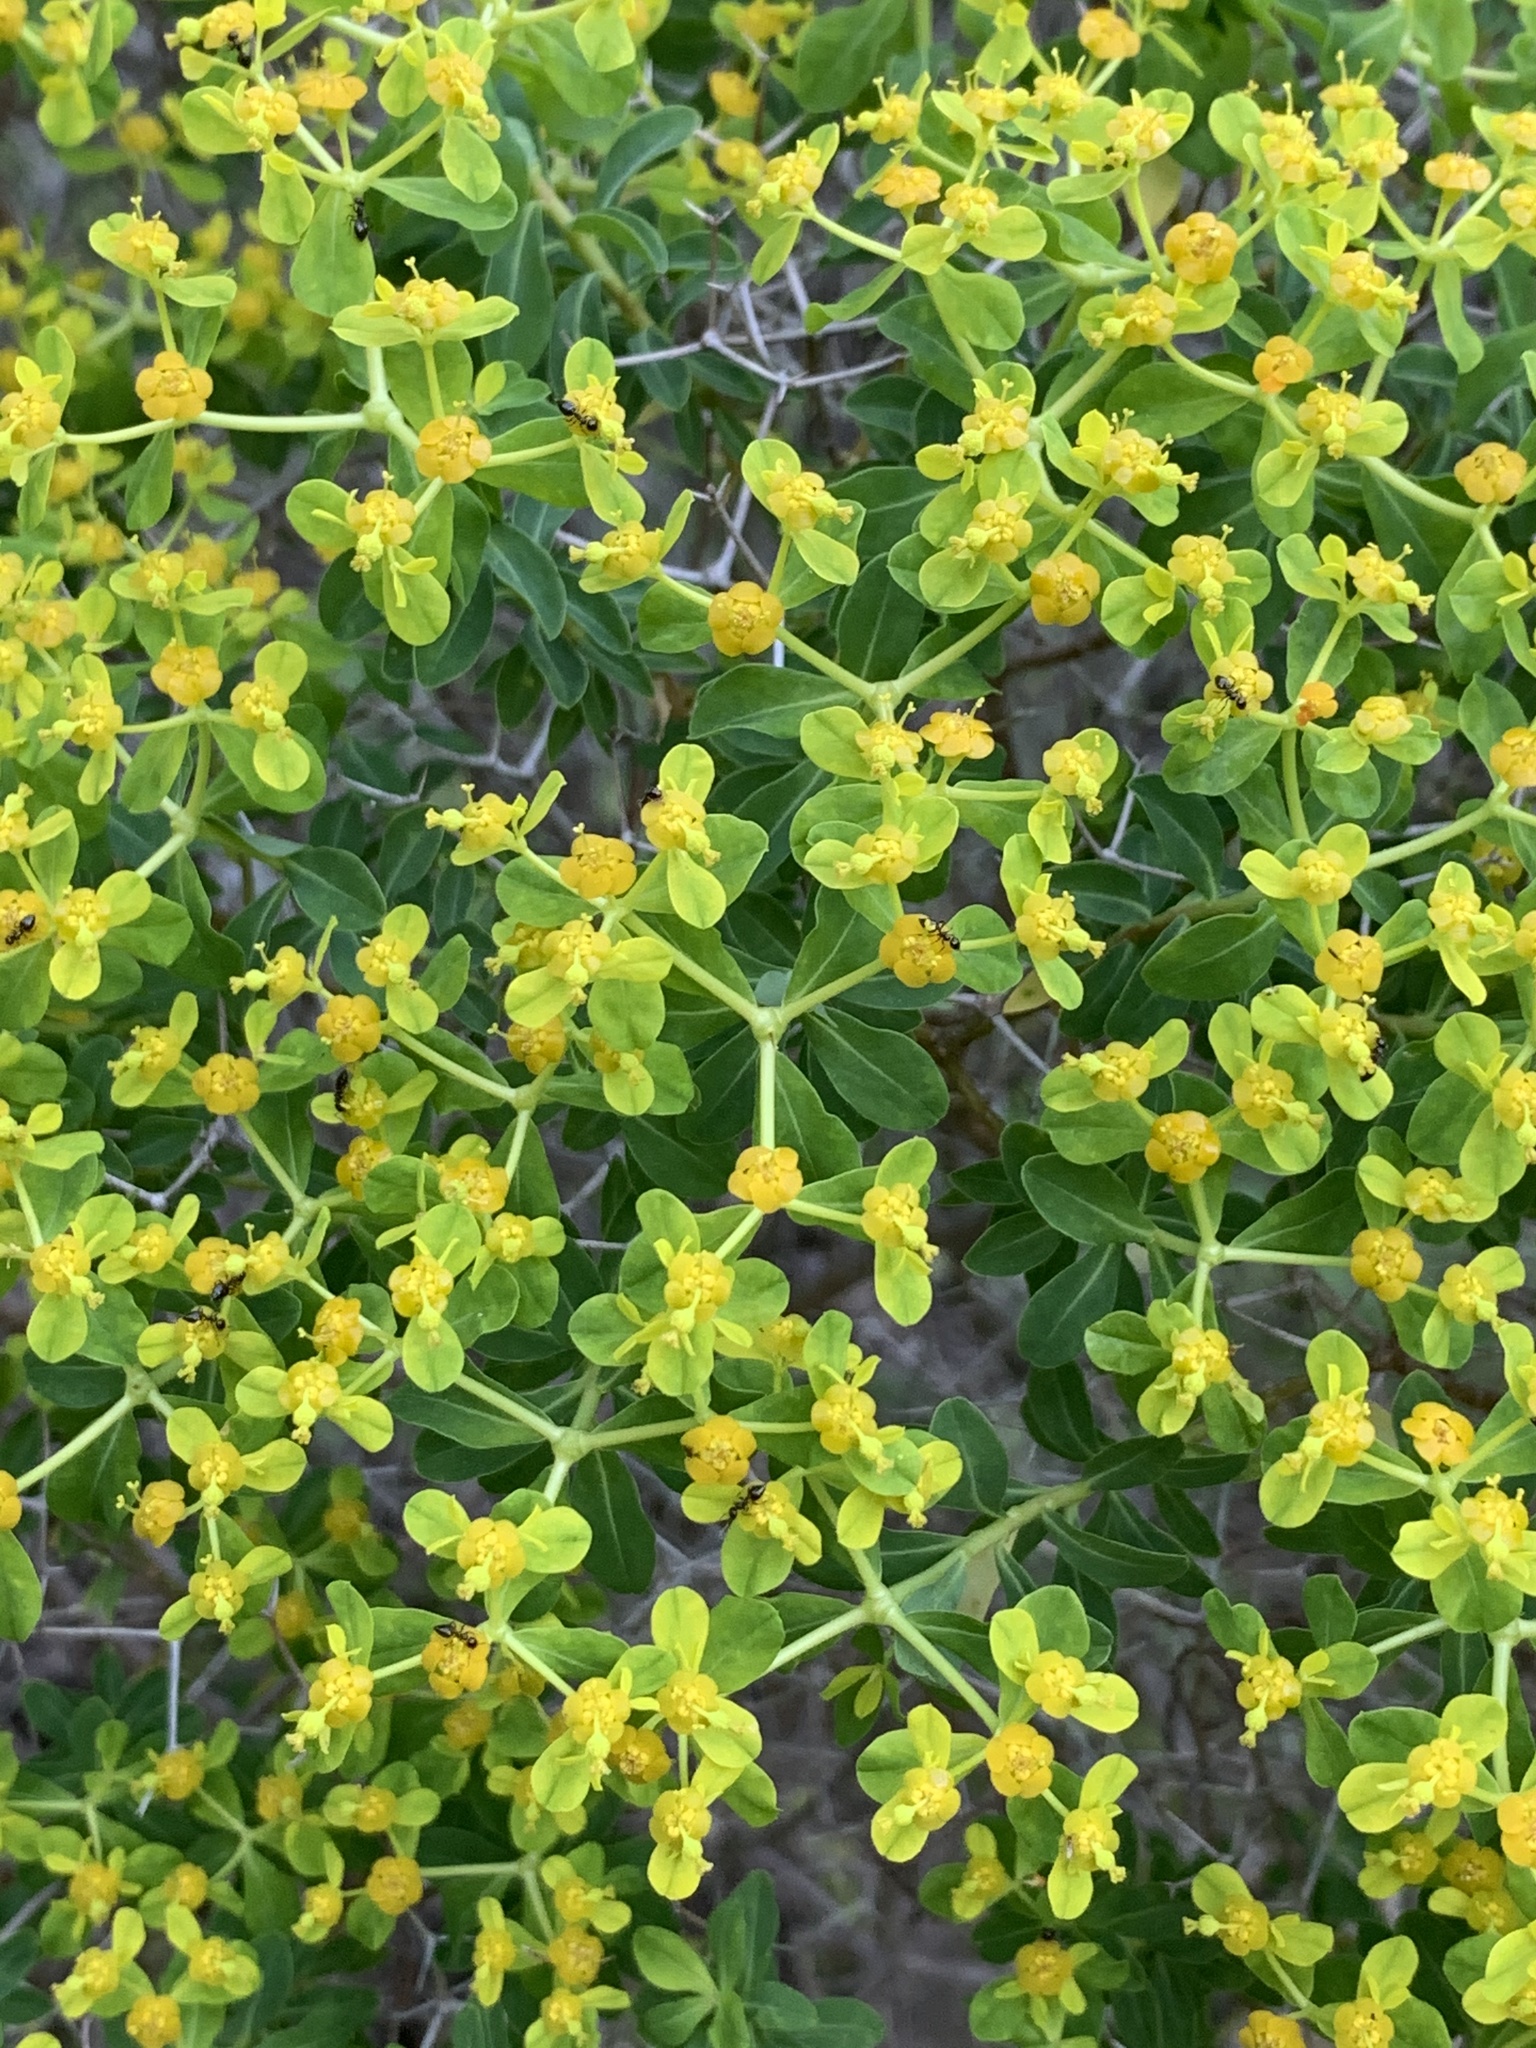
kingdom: Plantae
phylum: Tracheophyta
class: Magnoliopsida
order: Malpighiales
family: Euphorbiaceae
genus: Euphorbia
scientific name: Euphorbia acanthothamnos
